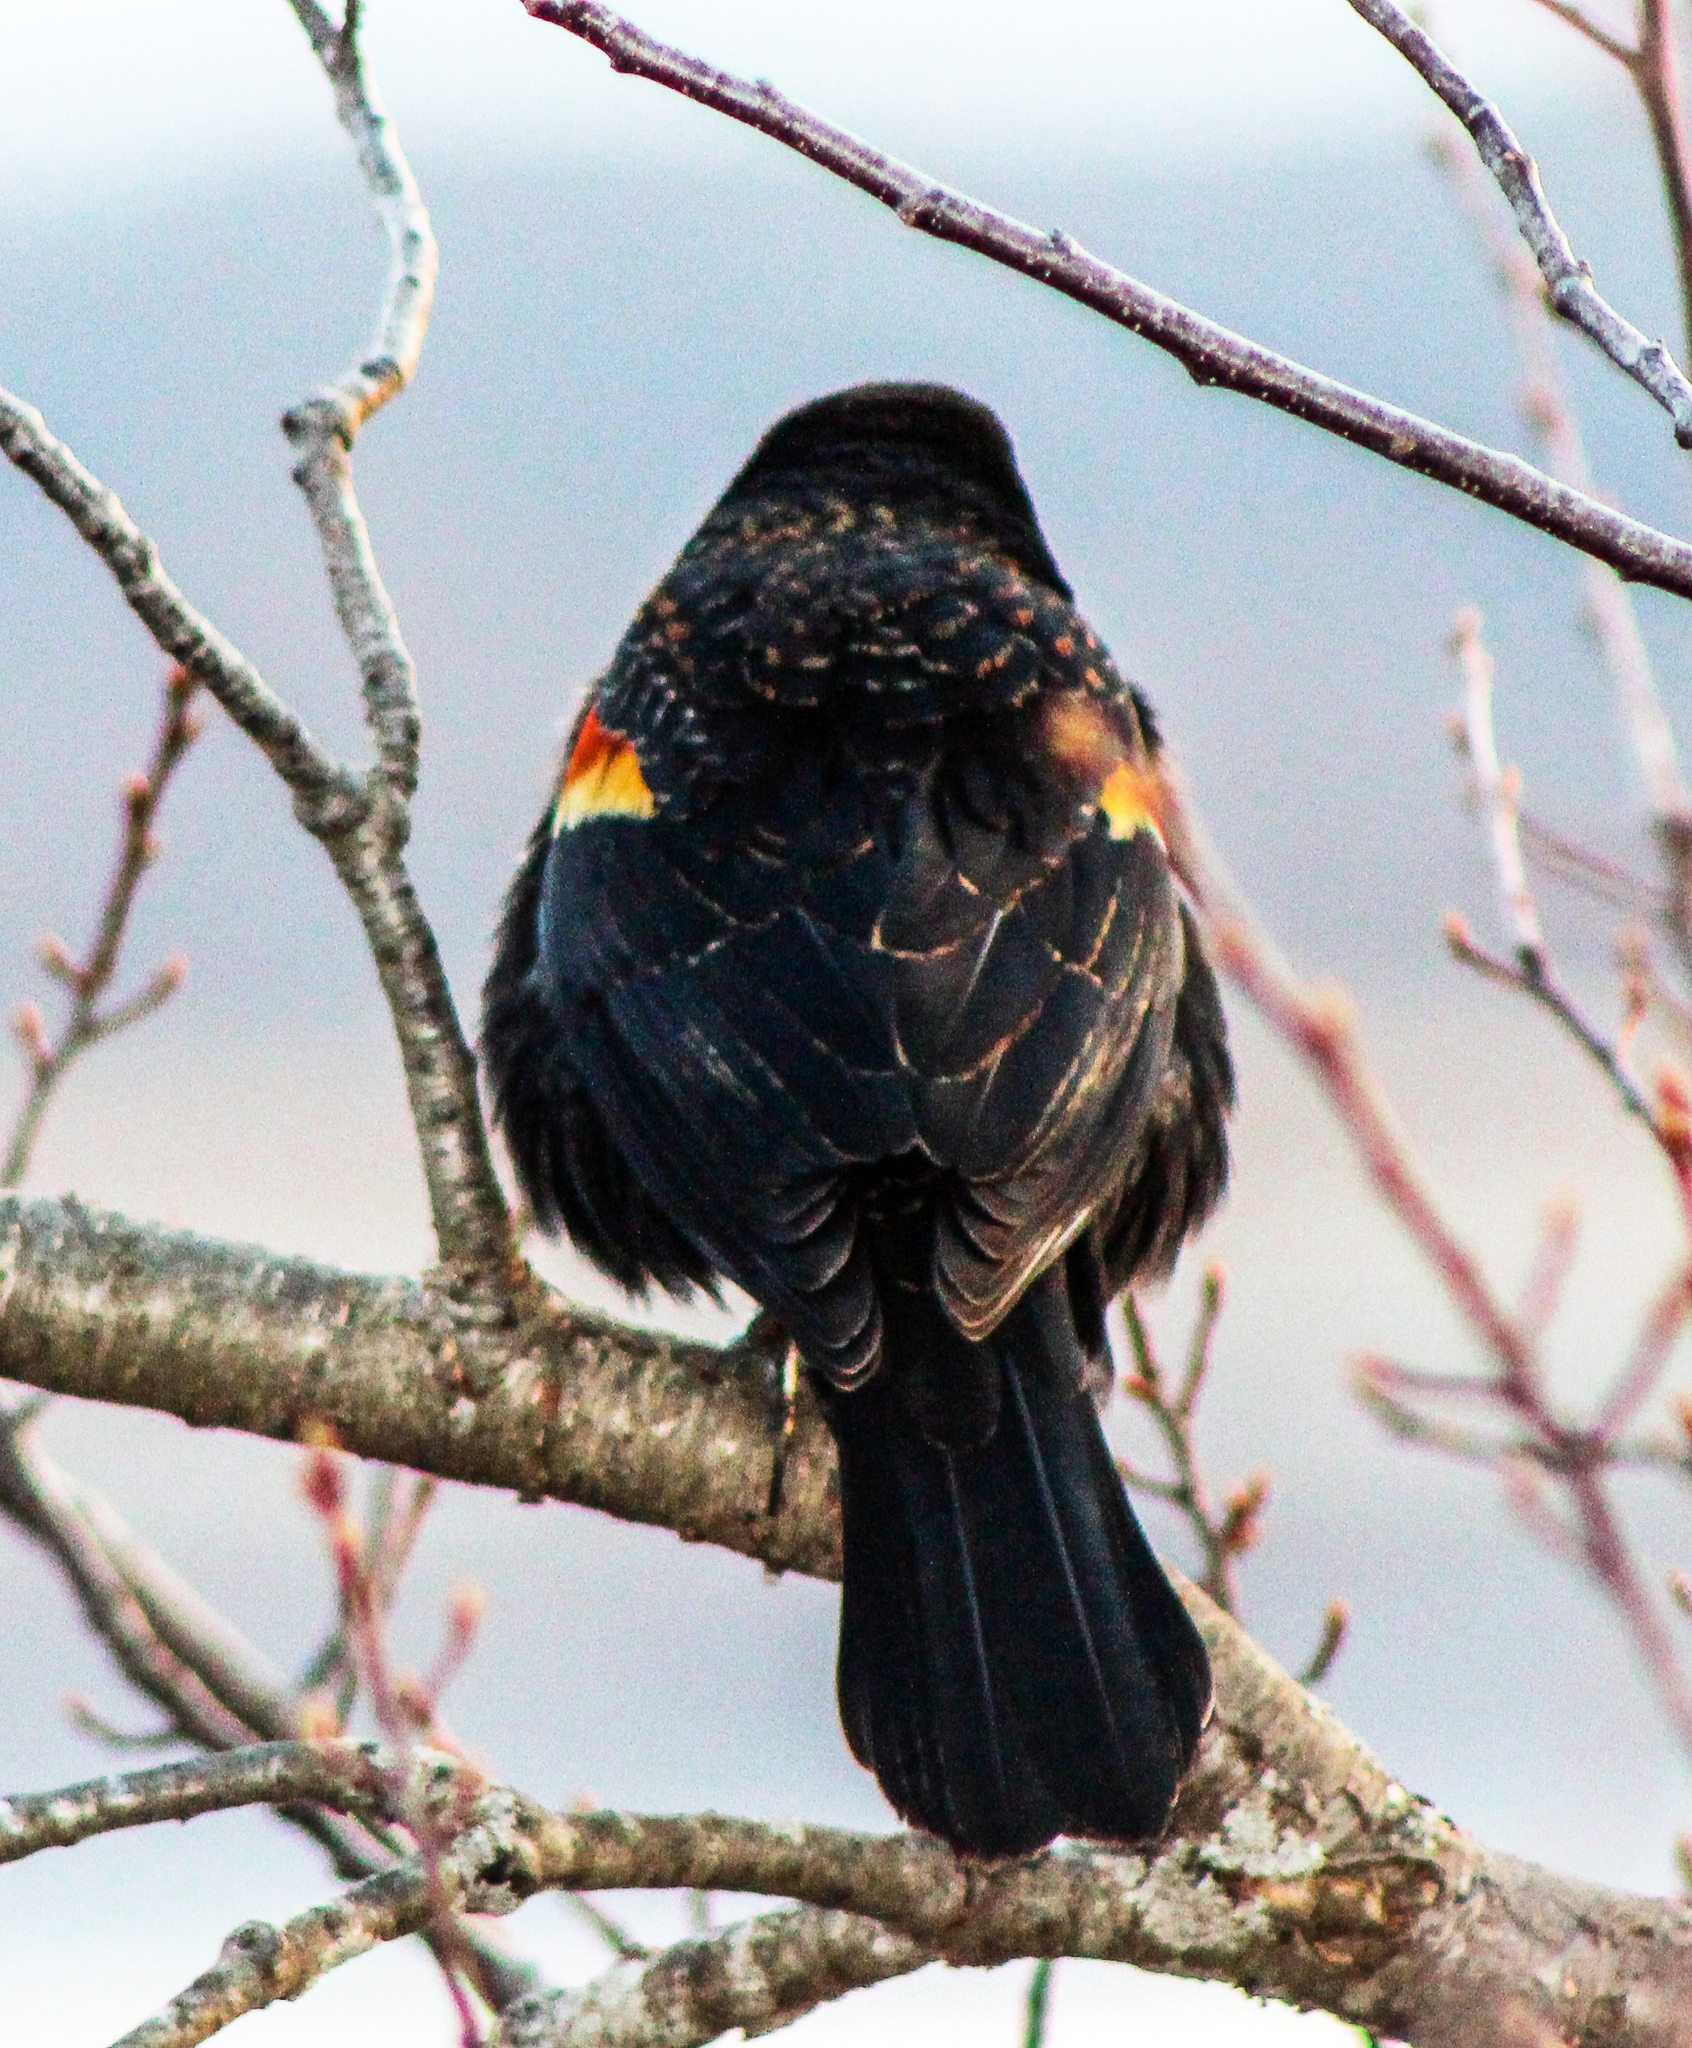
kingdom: Animalia
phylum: Chordata
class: Aves
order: Passeriformes
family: Icteridae
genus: Agelaius
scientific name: Agelaius phoeniceus
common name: Red-winged blackbird
